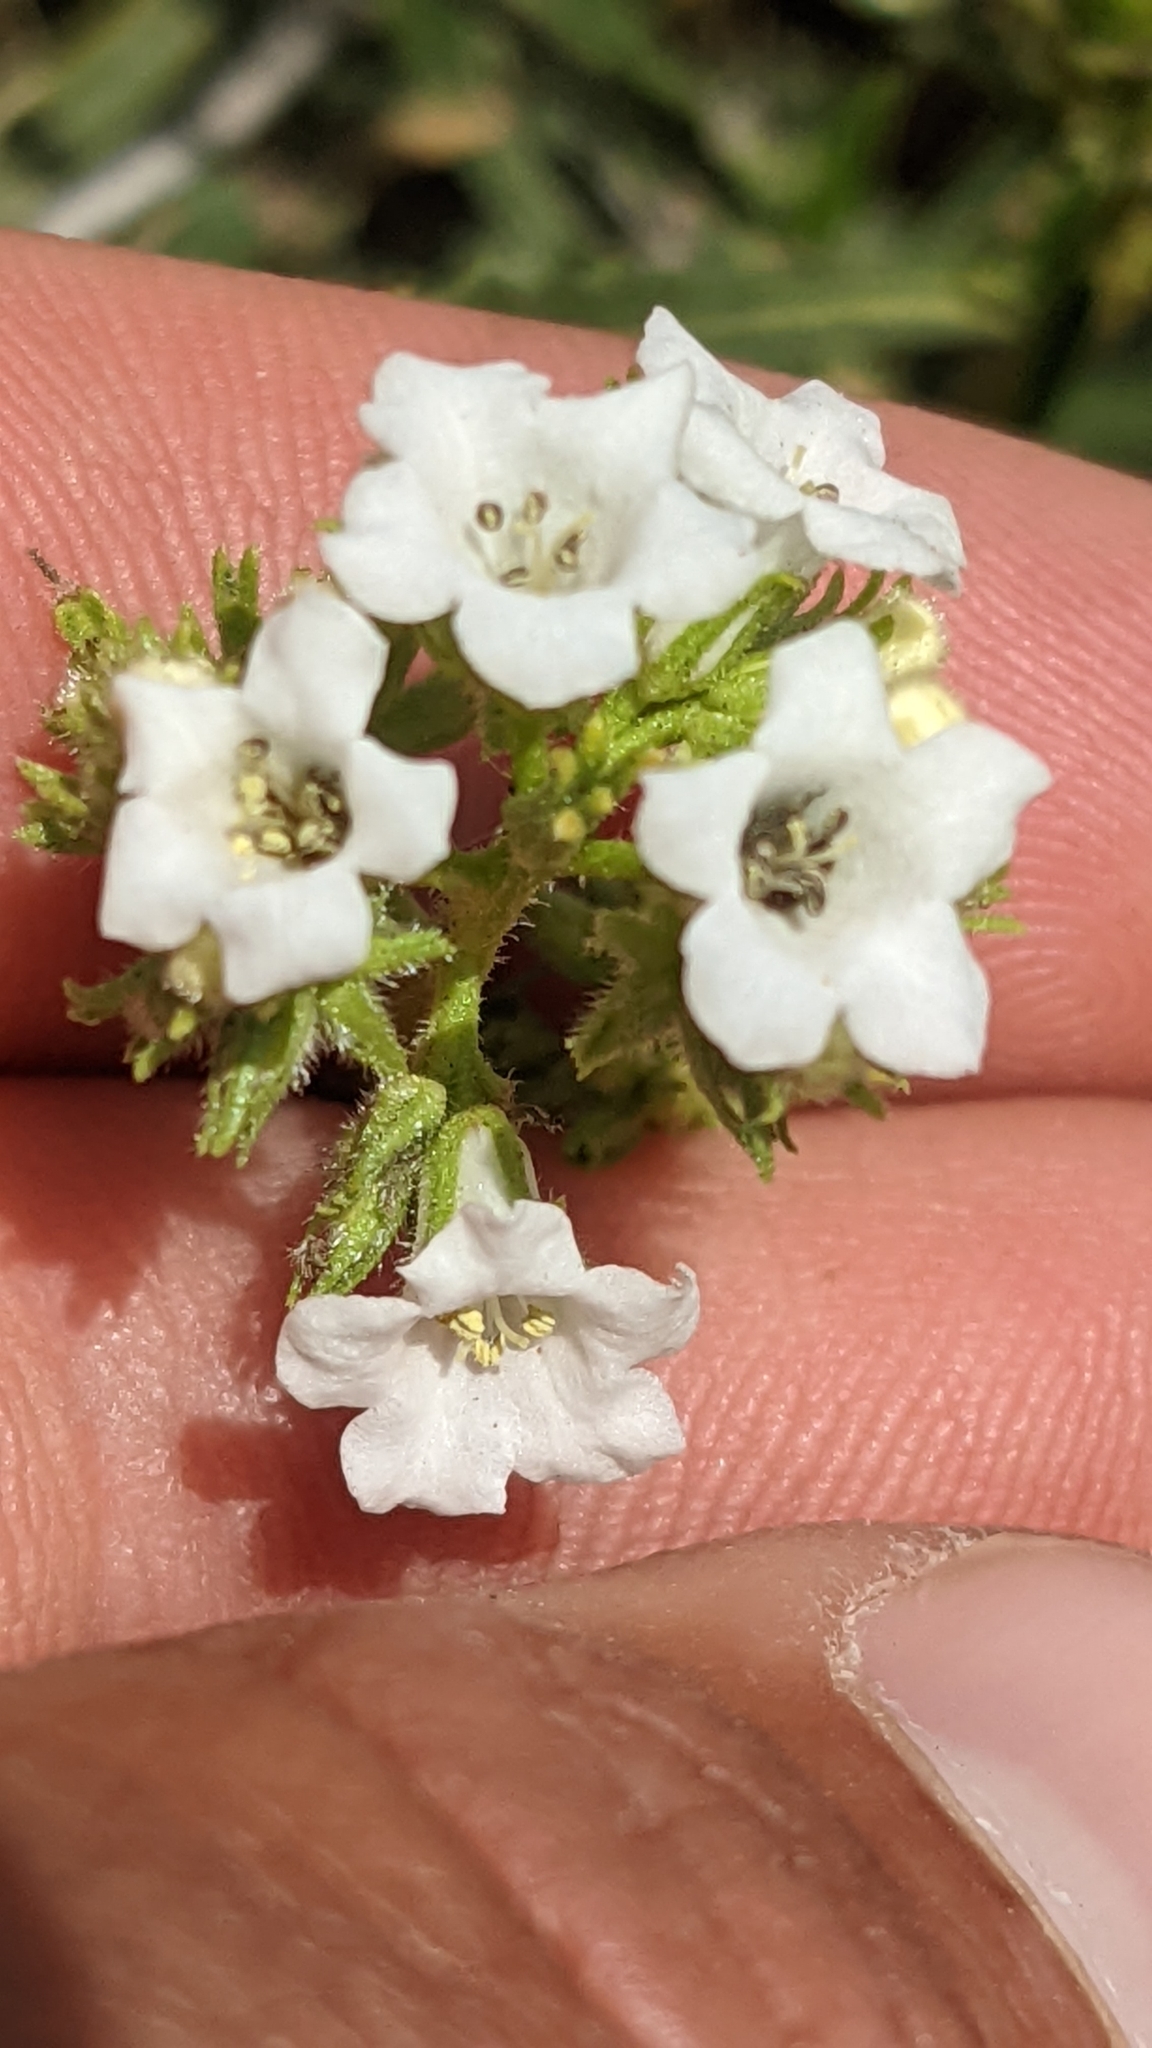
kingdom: Plantae
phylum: Tracheophyta
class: Magnoliopsida
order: Boraginales
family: Namaceae
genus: Eriodictyon
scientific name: Eriodictyon angustifolium
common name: Narrow-leaf yerba santa
